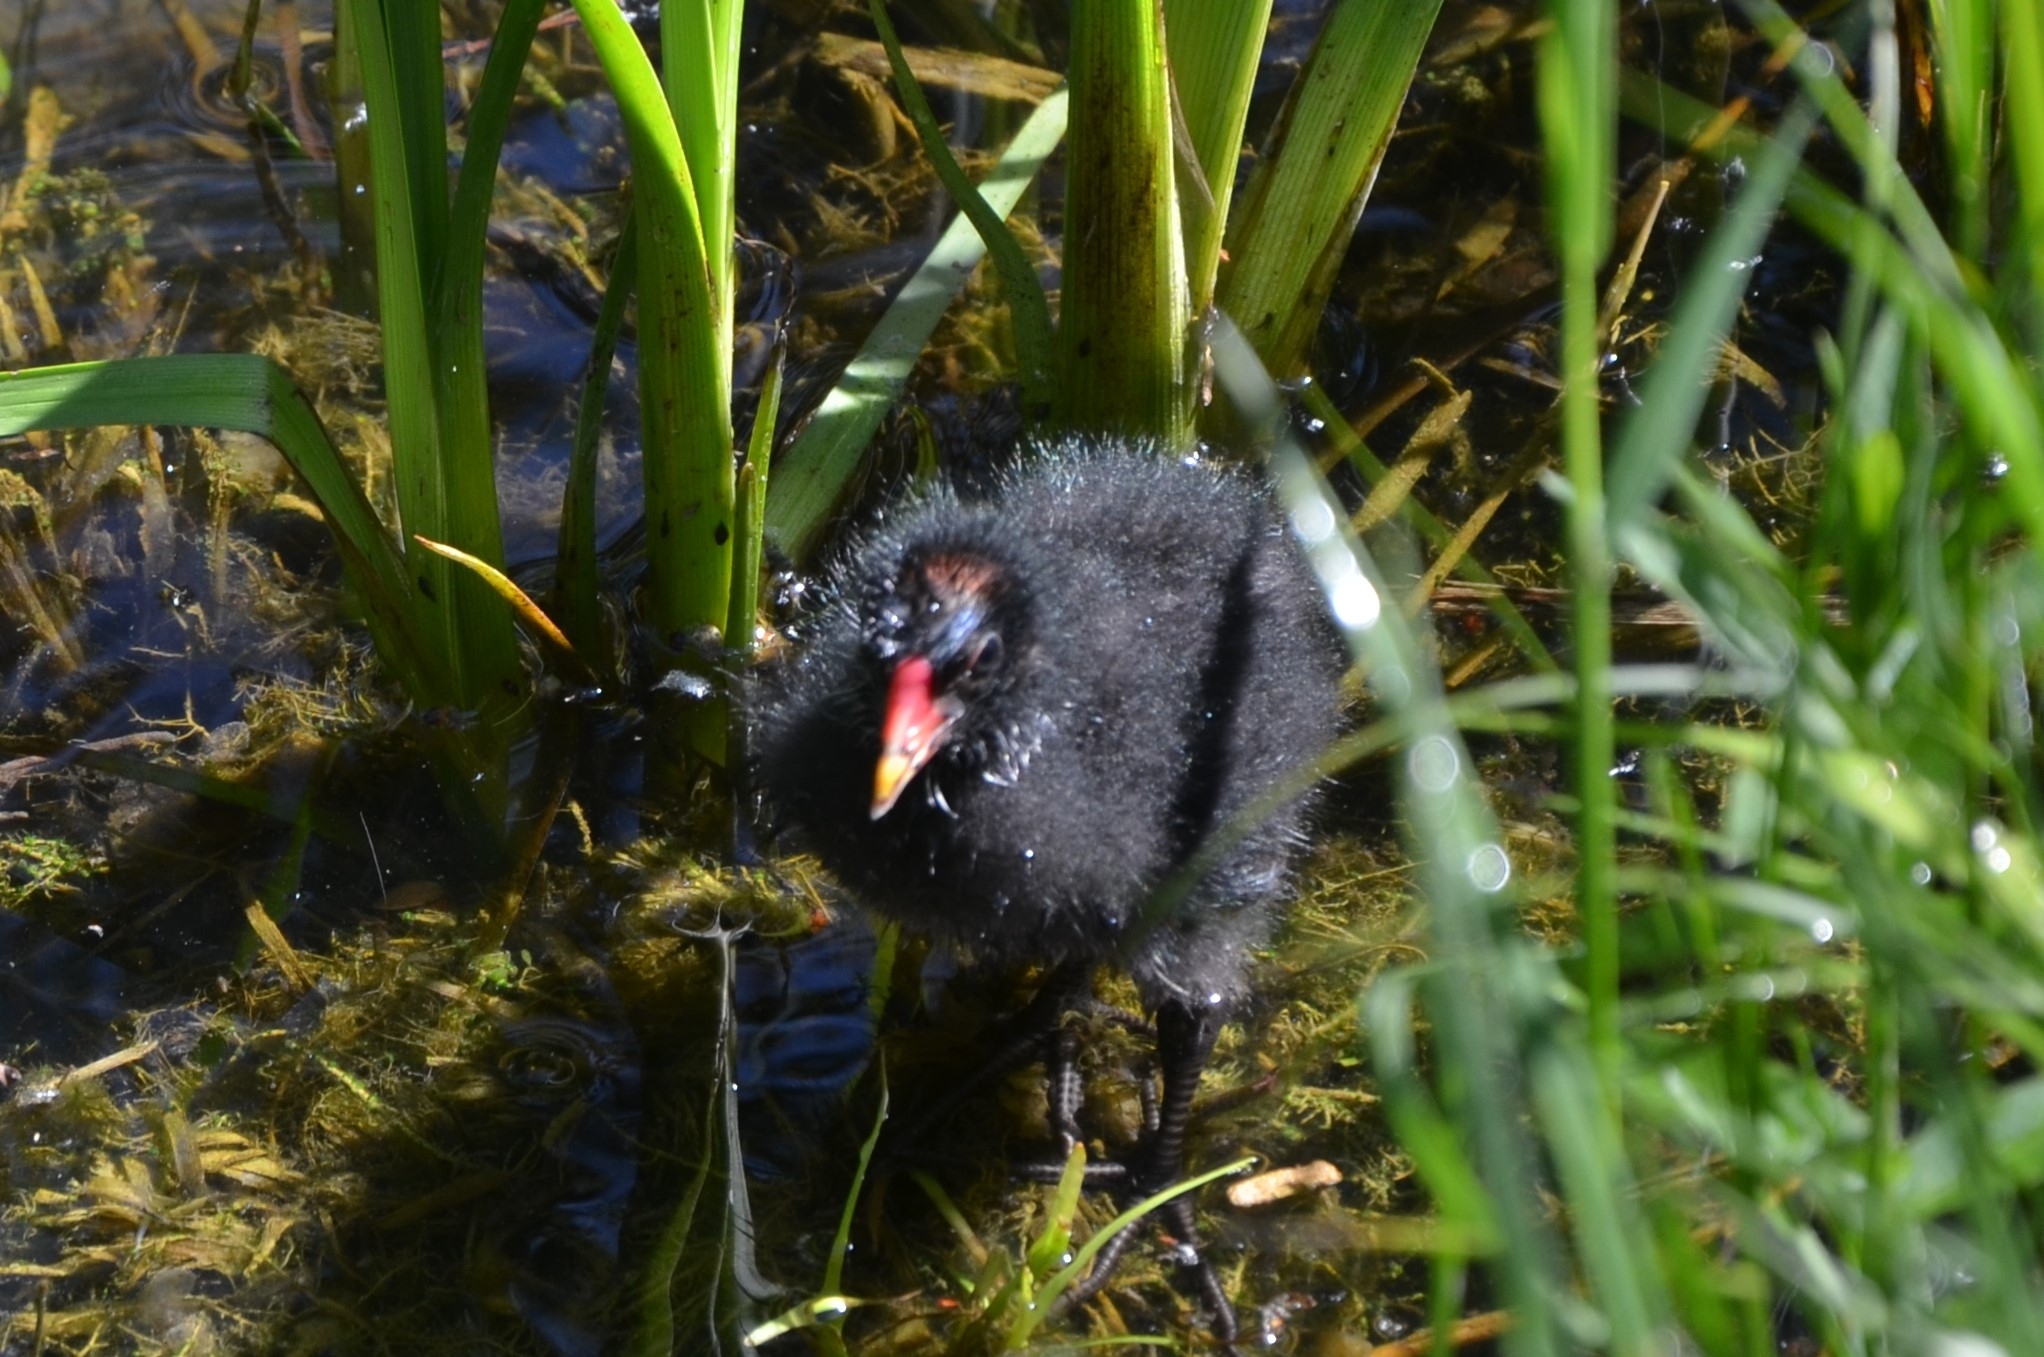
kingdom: Animalia
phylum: Chordata
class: Aves
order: Gruiformes
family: Rallidae
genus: Gallinula
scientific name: Gallinula chloropus
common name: Common moorhen
